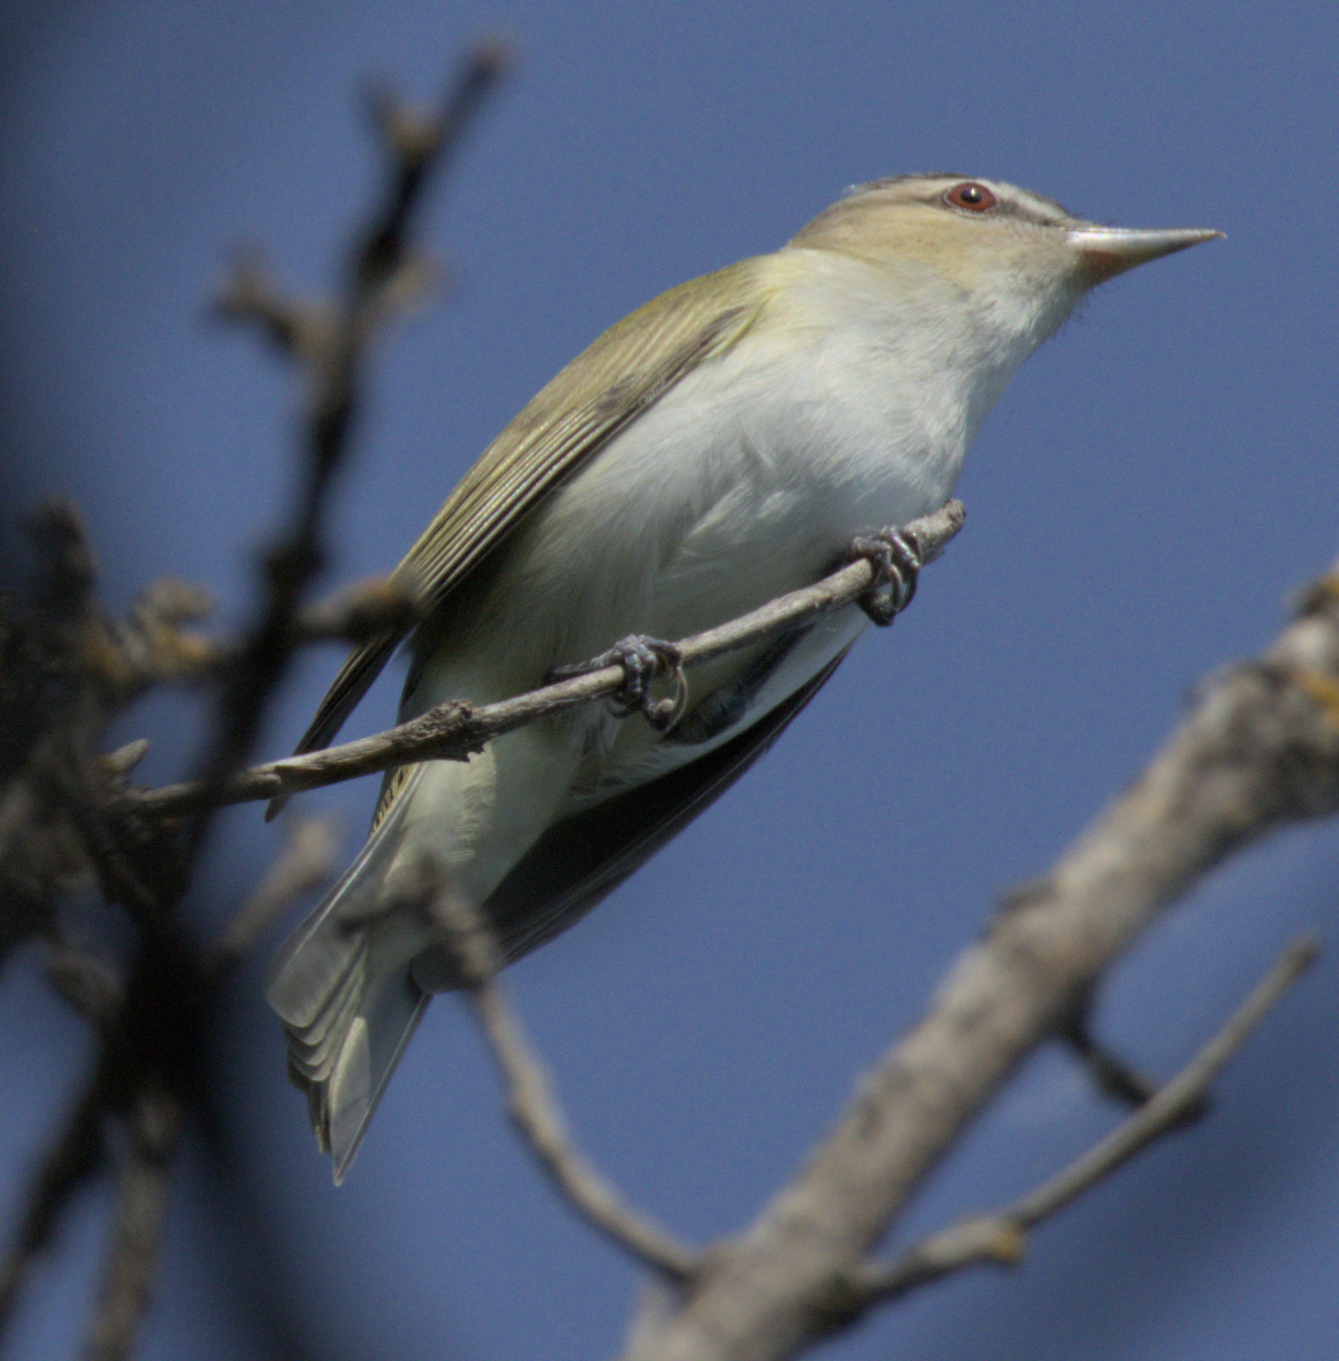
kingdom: Animalia
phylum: Chordata
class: Aves
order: Passeriformes
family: Vireonidae
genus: Vireo
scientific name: Vireo olivaceus
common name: Red-eyed vireo
